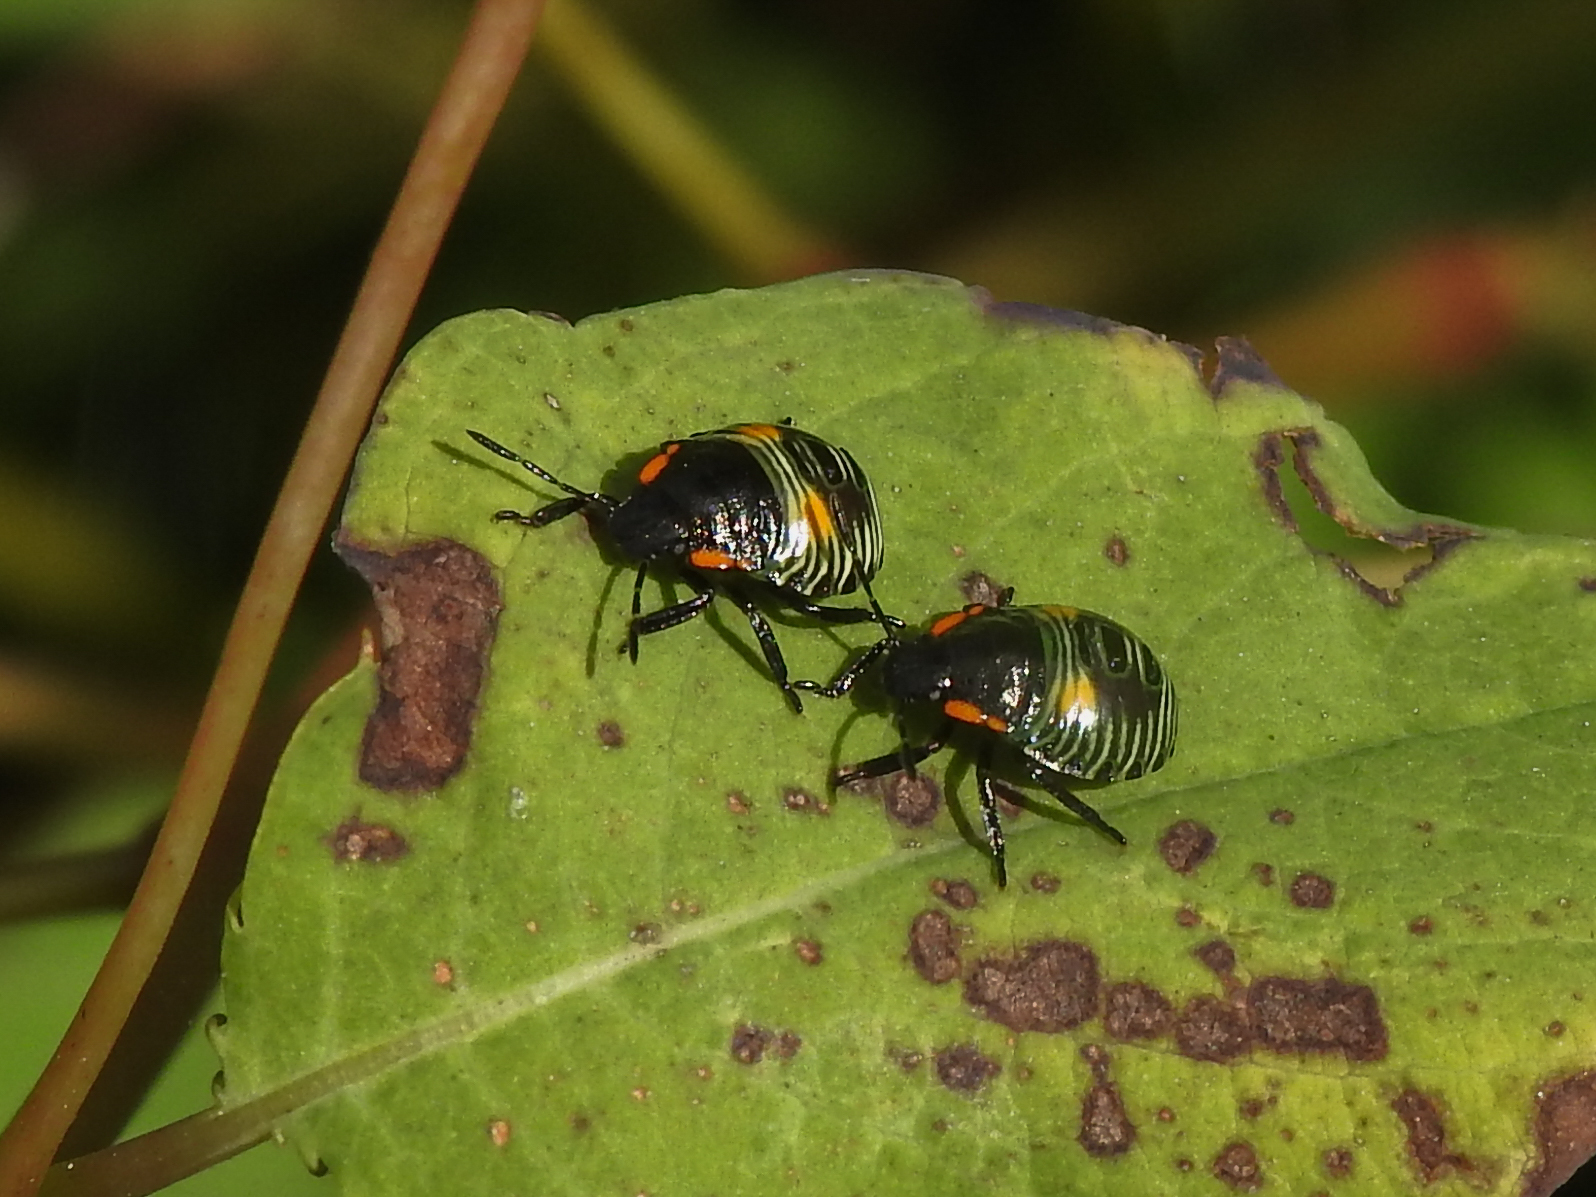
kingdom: Animalia
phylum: Arthropoda
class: Insecta
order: Hemiptera
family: Pentatomidae
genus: Chinavia
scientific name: Chinavia hilaris
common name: Green stink bug
